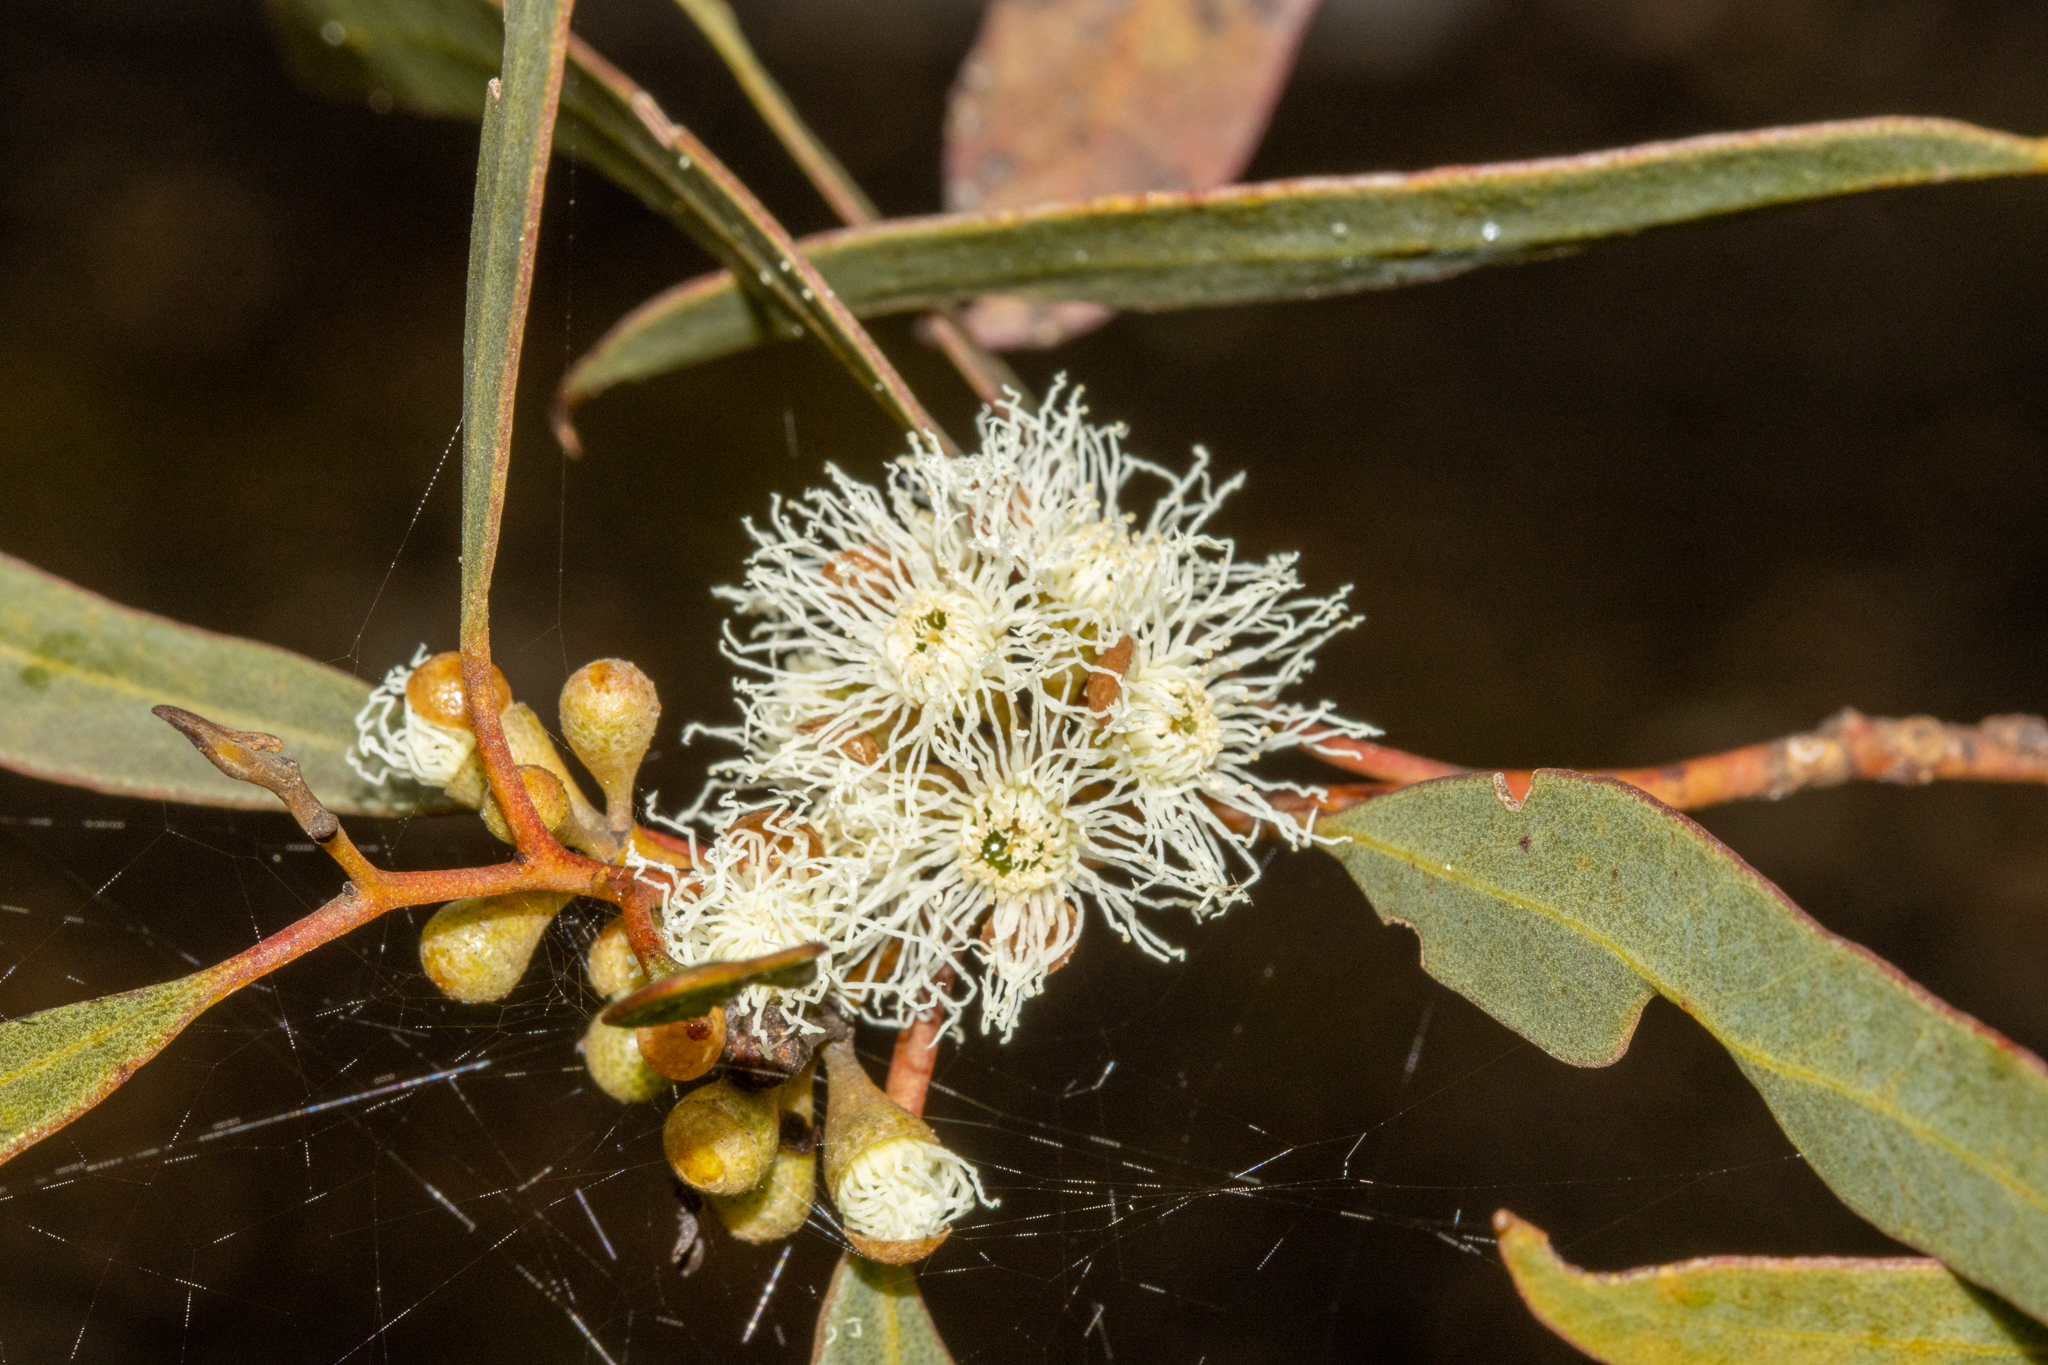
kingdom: Plantae
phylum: Tracheophyta
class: Magnoliopsida
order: Myrtales
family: Myrtaceae
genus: Eucalyptus
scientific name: Eucalyptus gracilis
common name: White mallee
